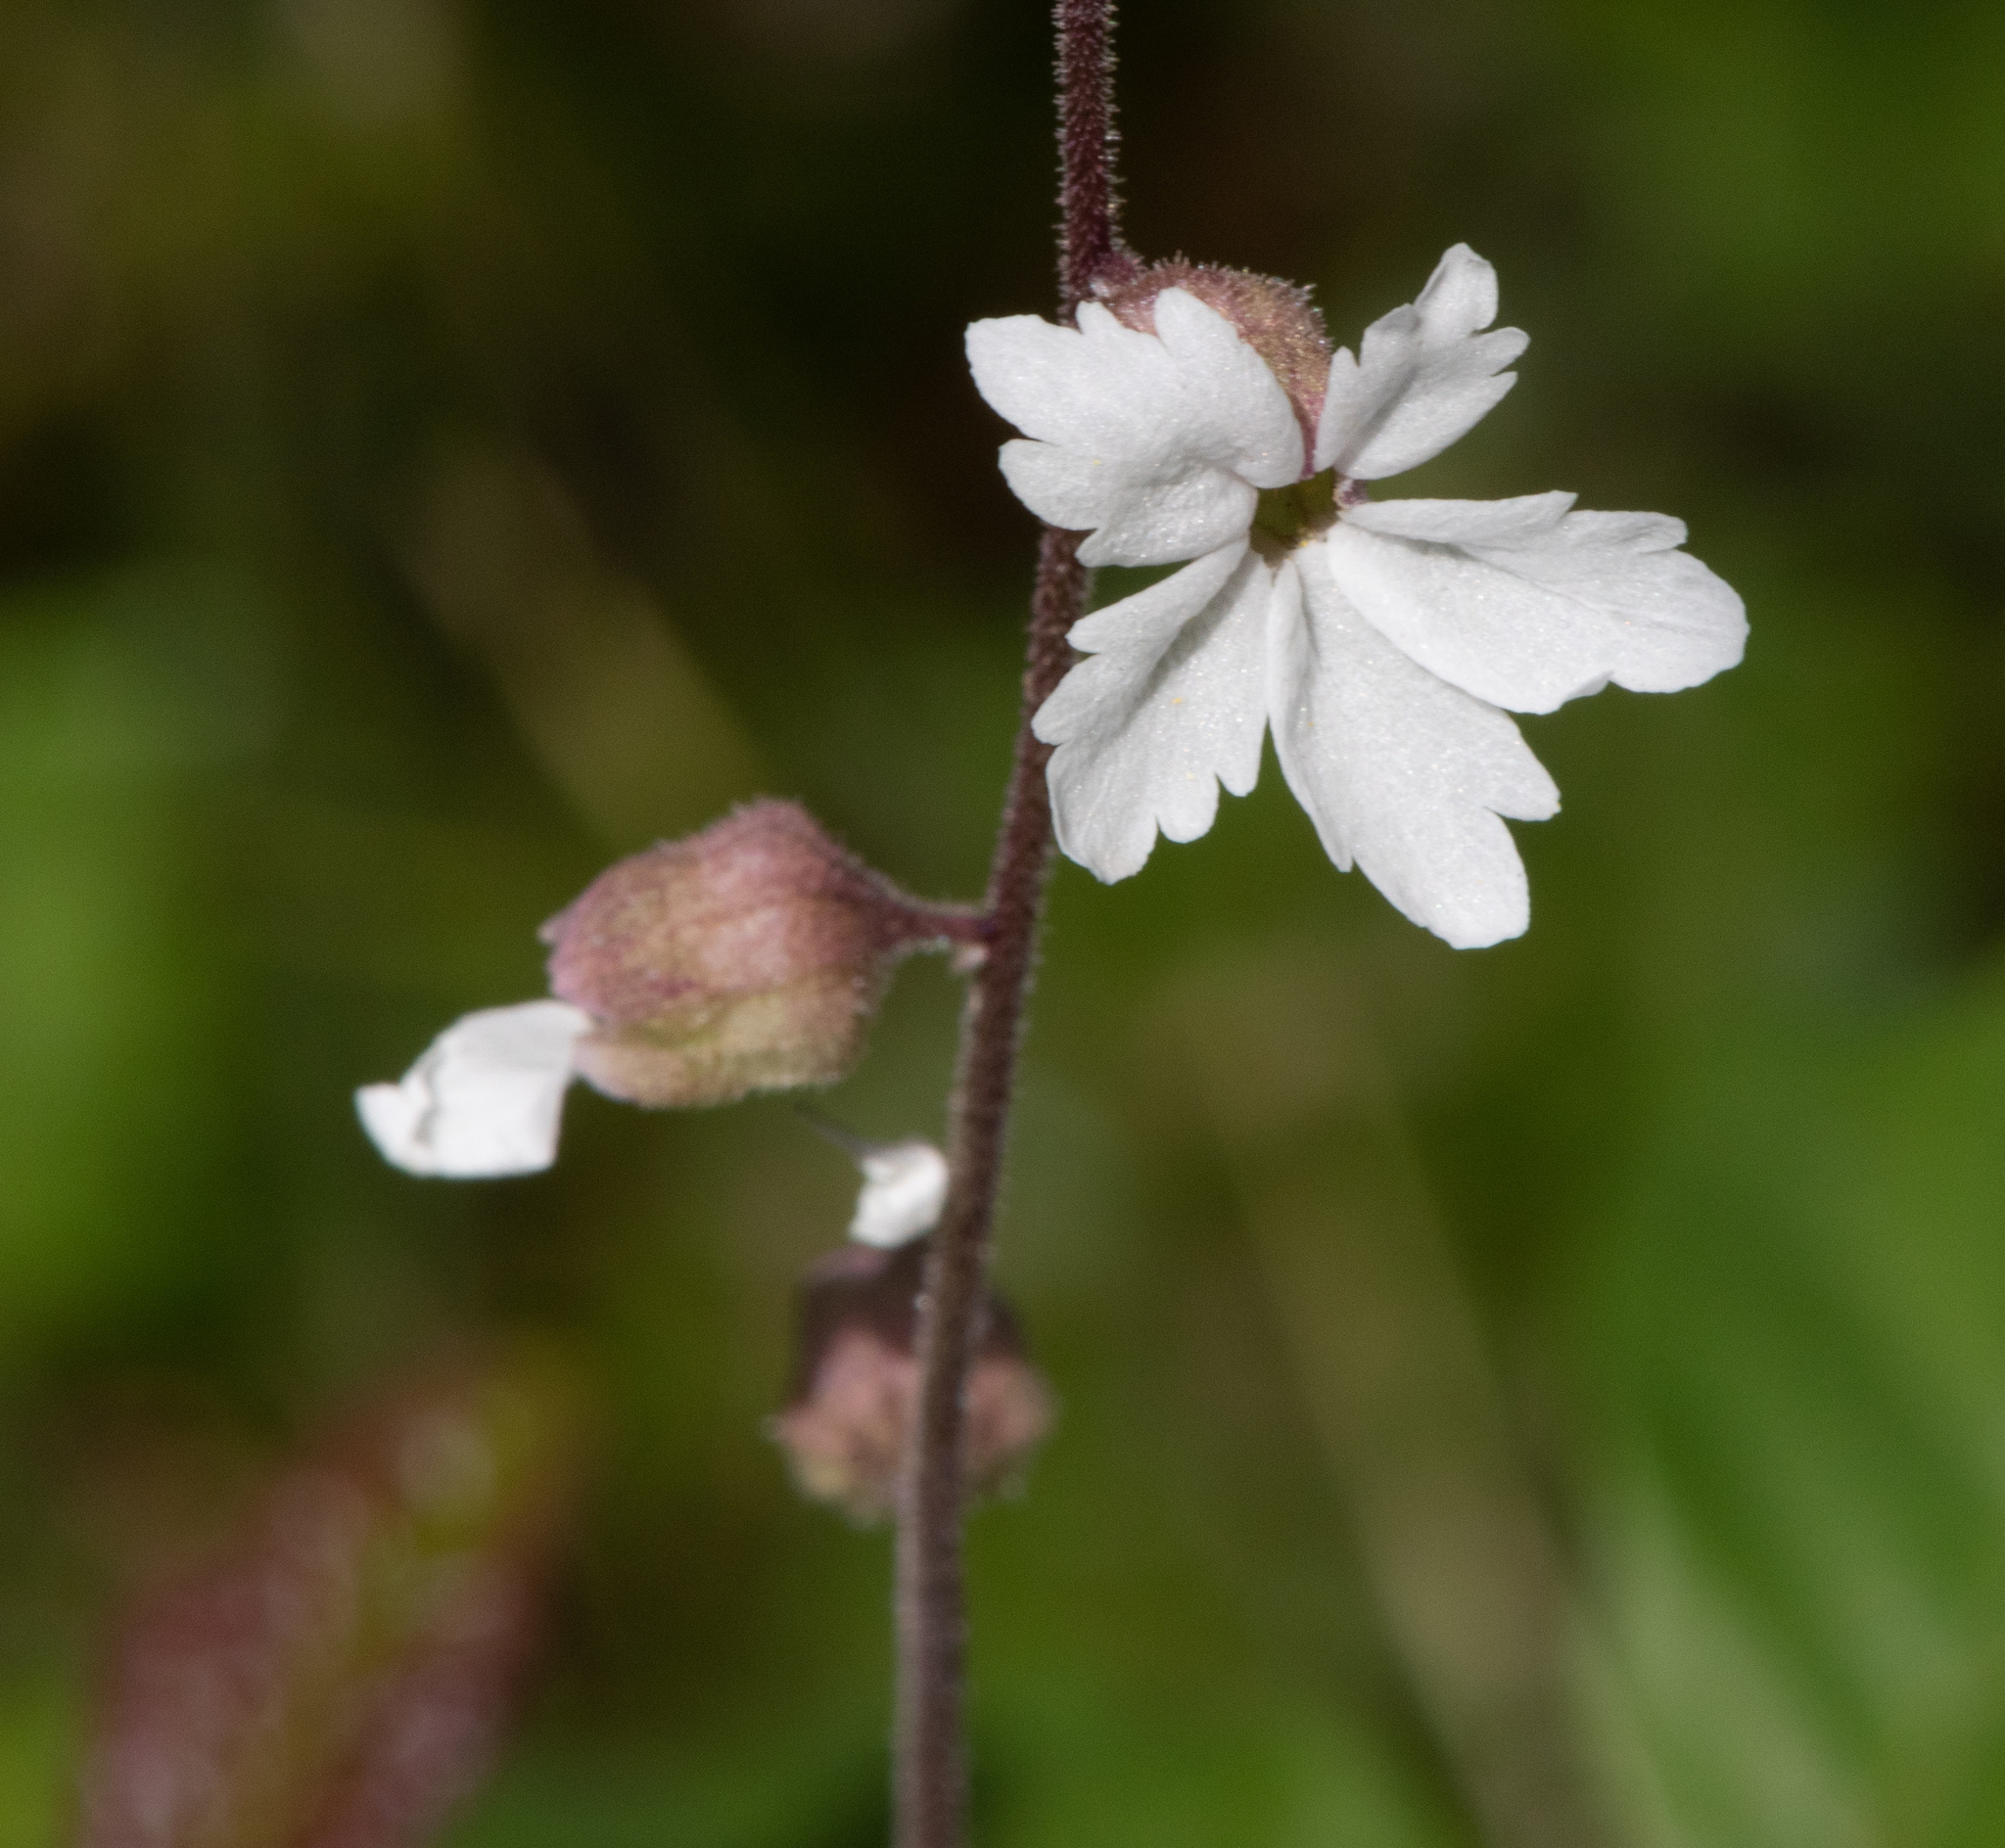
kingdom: Plantae
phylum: Tracheophyta
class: Magnoliopsida
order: Saxifragales
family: Saxifragaceae
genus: Lithophragma
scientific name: Lithophragma heterophyllum
